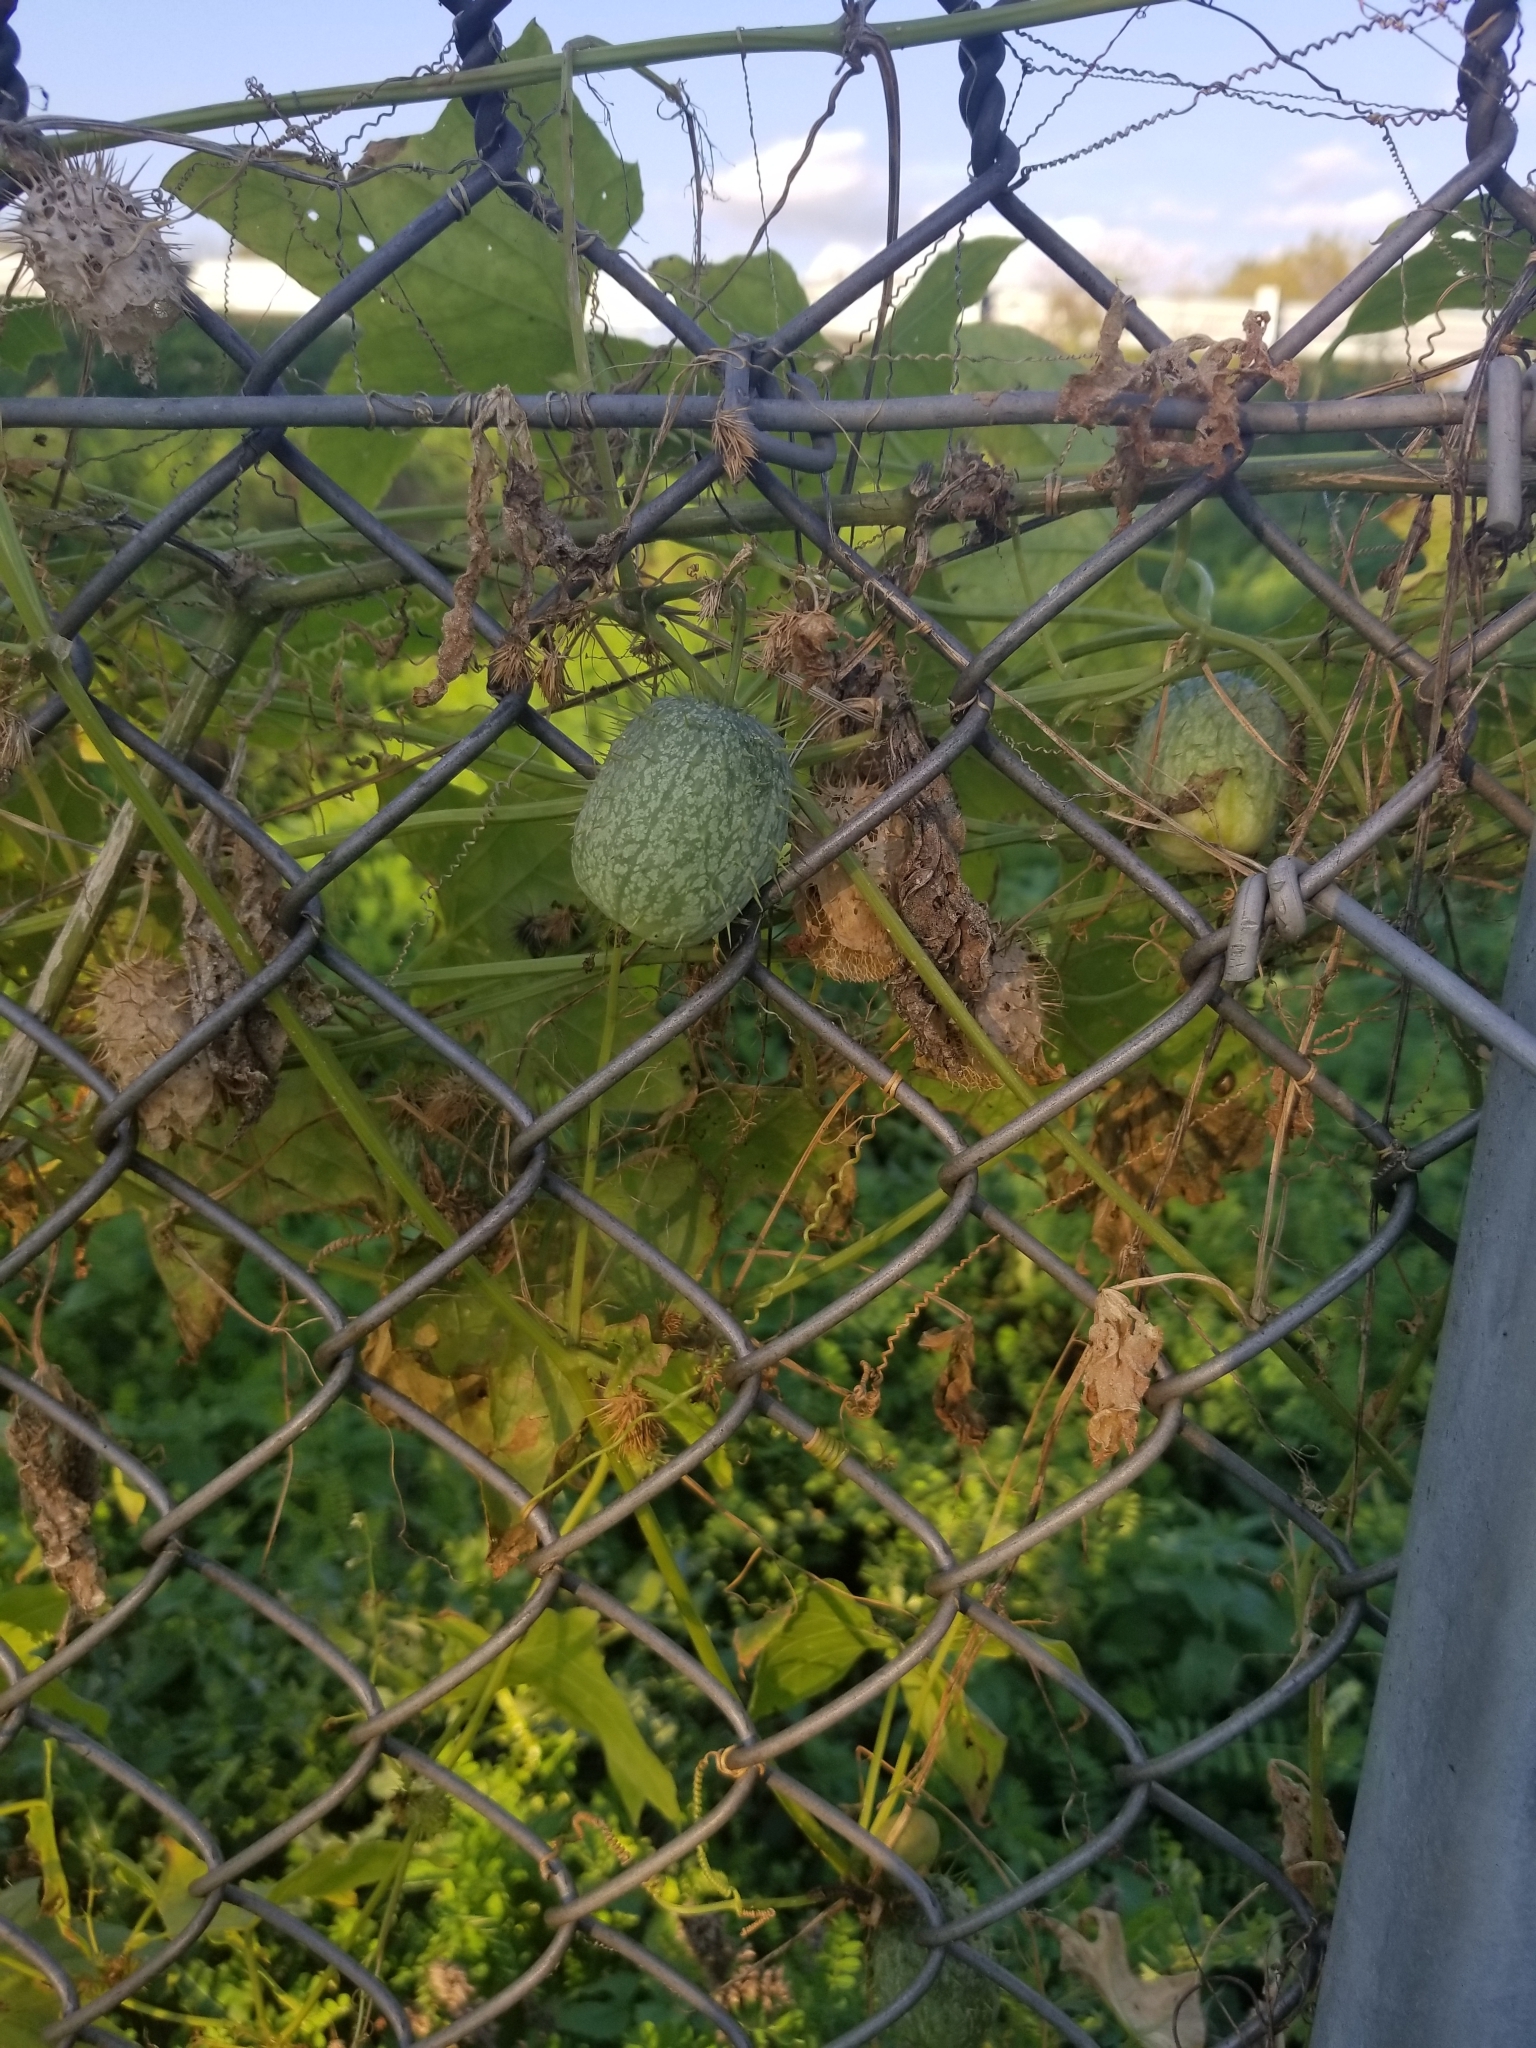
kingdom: Plantae
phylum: Tracheophyta
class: Magnoliopsida
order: Cucurbitales
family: Cucurbitaceae
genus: Echinocystis
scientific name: Echinocystis lobata
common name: Wild cucumber
